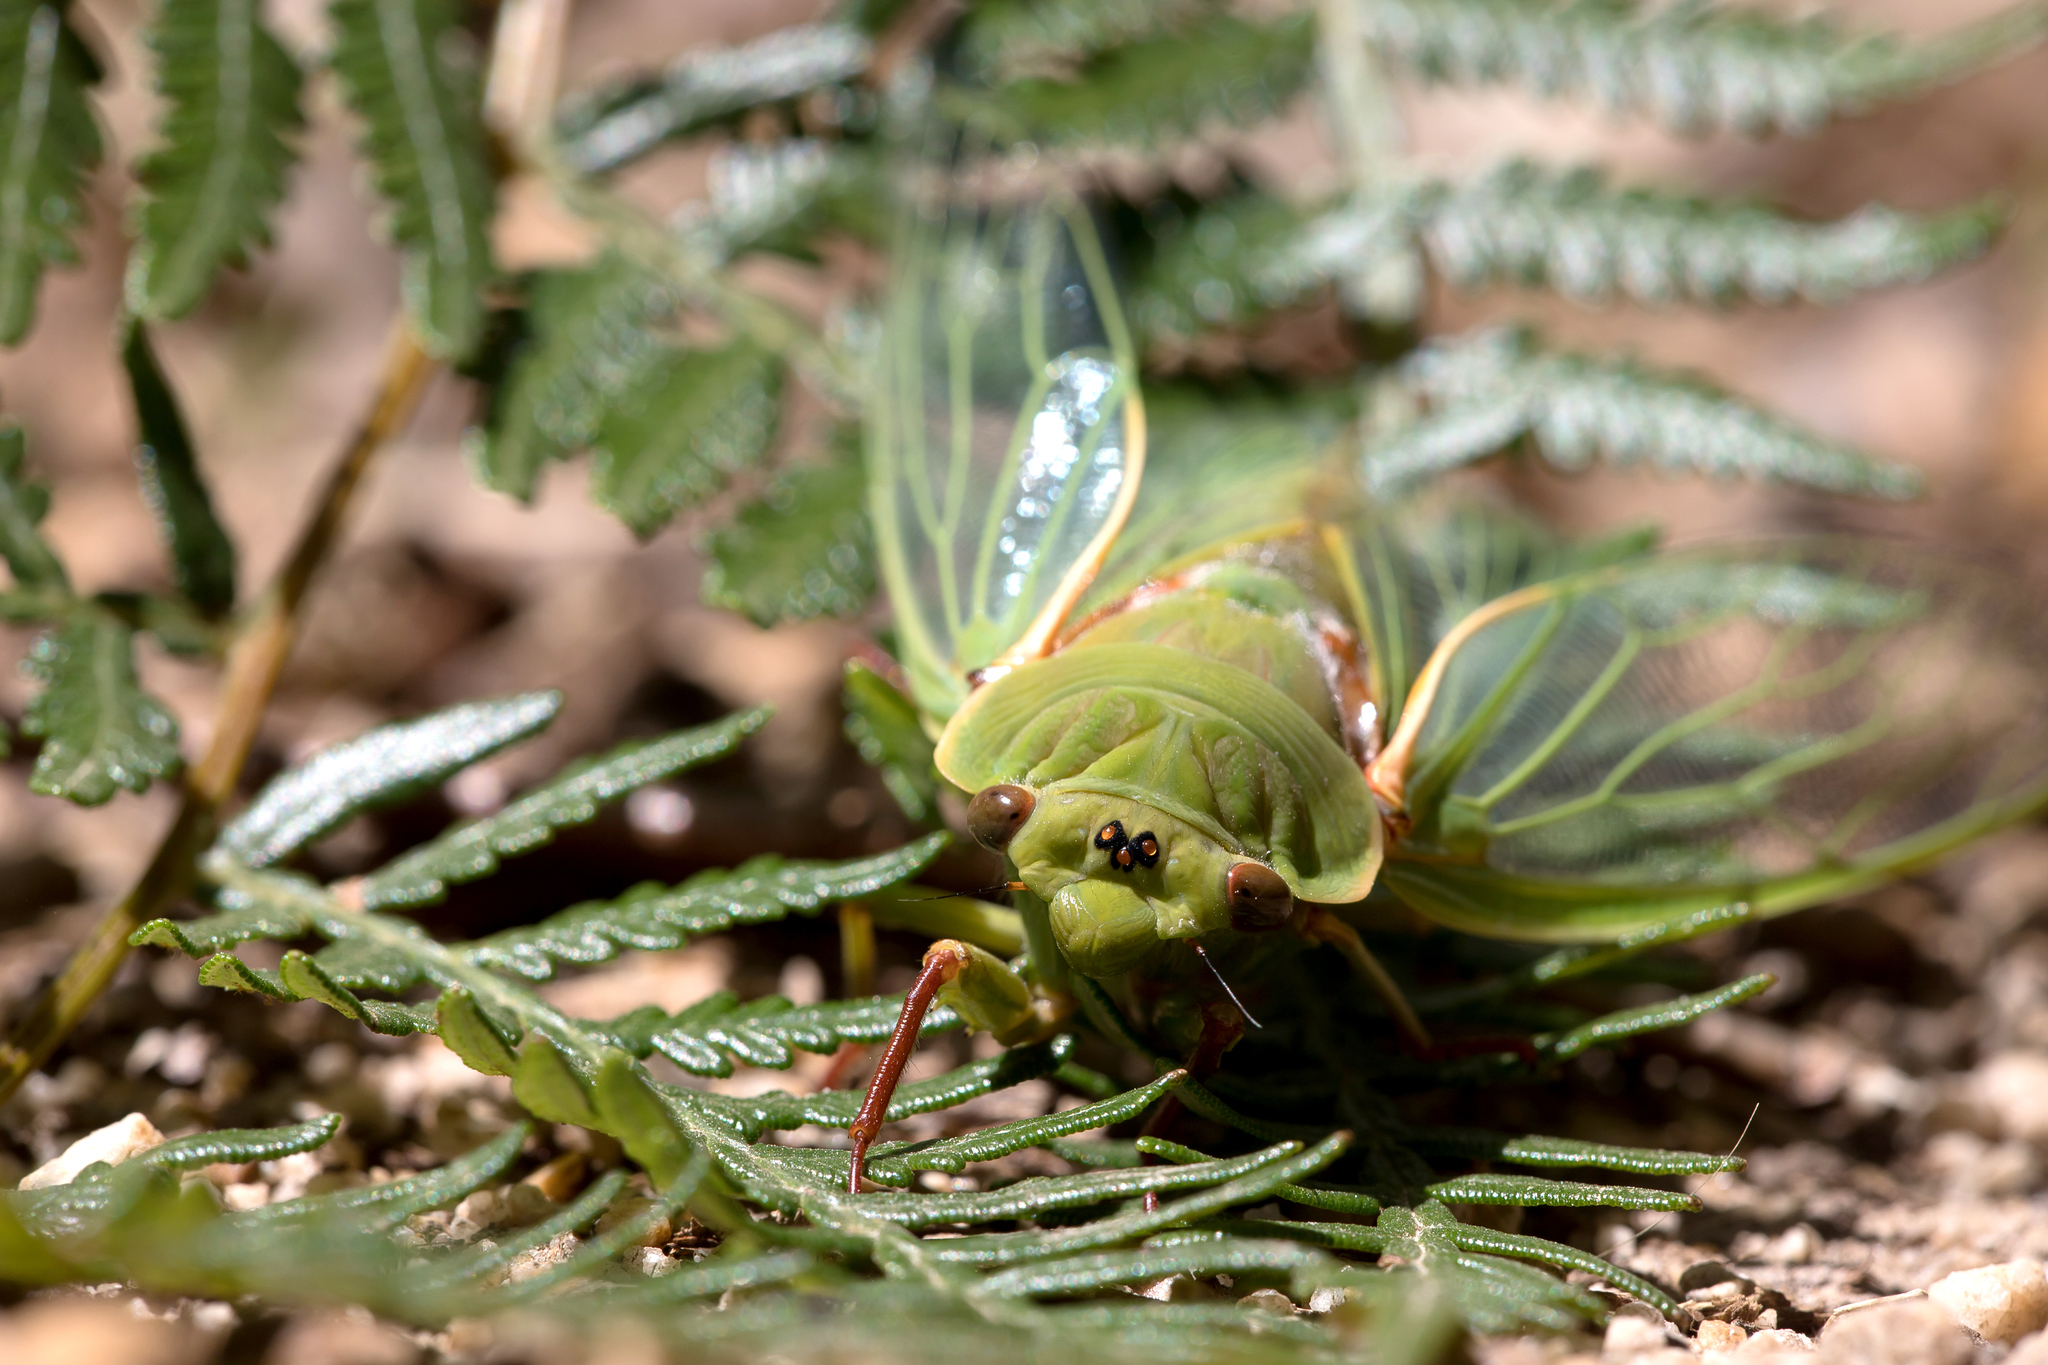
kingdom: Animalia
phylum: Arthropoda
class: Insecta
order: Hemiptera
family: Cicadidae
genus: Cyclochila
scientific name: Cyclochila australasiae
